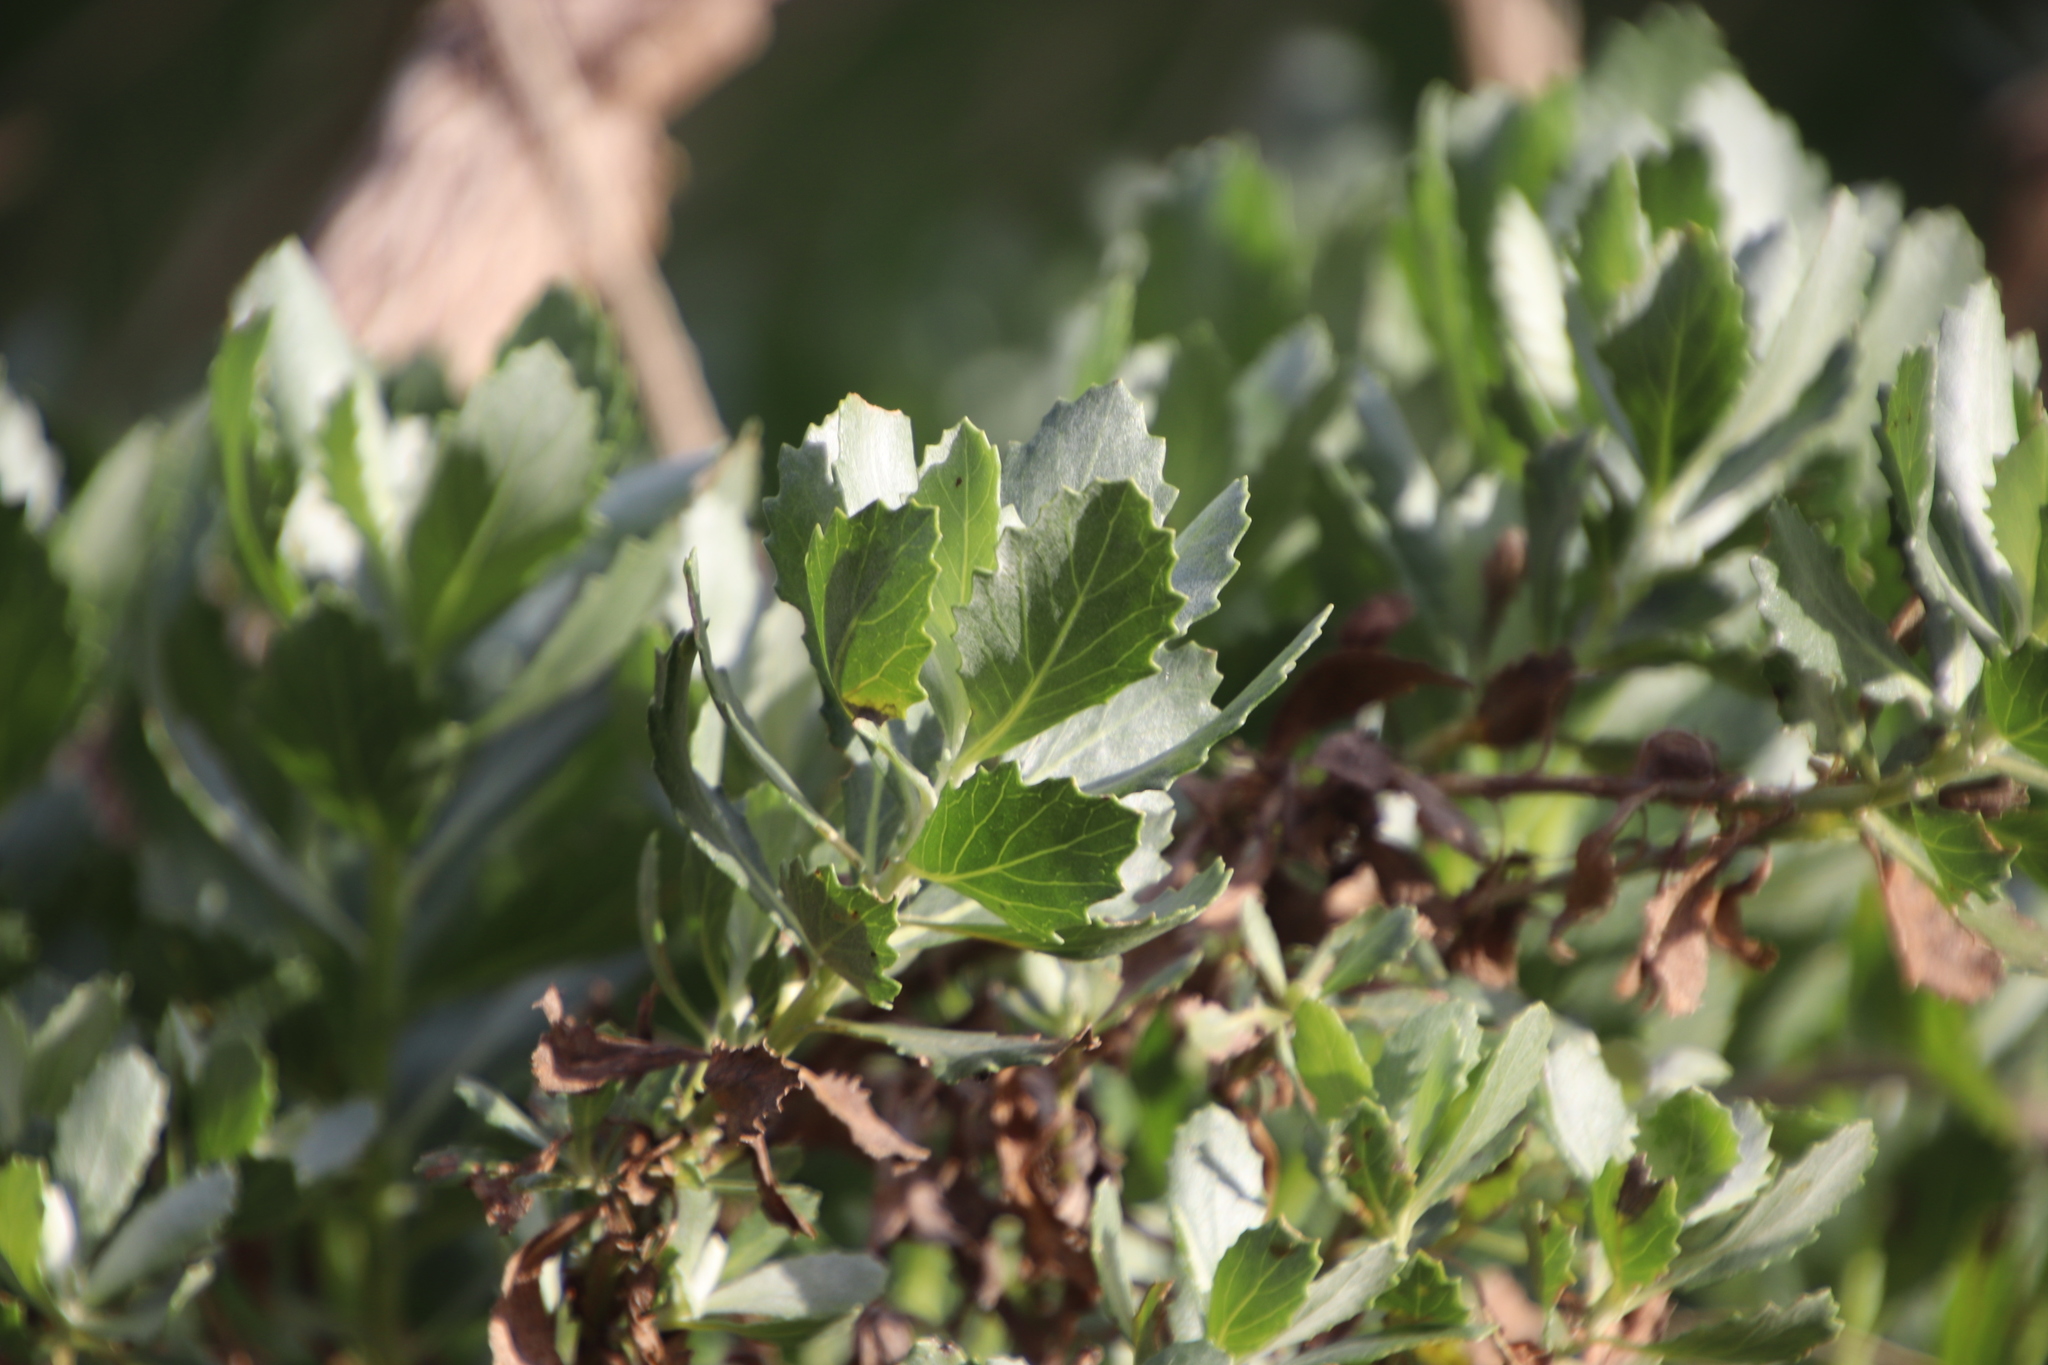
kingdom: Plantae
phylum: Tracheophyta
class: Magnoliopsida
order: Asterales
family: Asteraceae
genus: Senecio
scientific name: Senecio halimifolius
